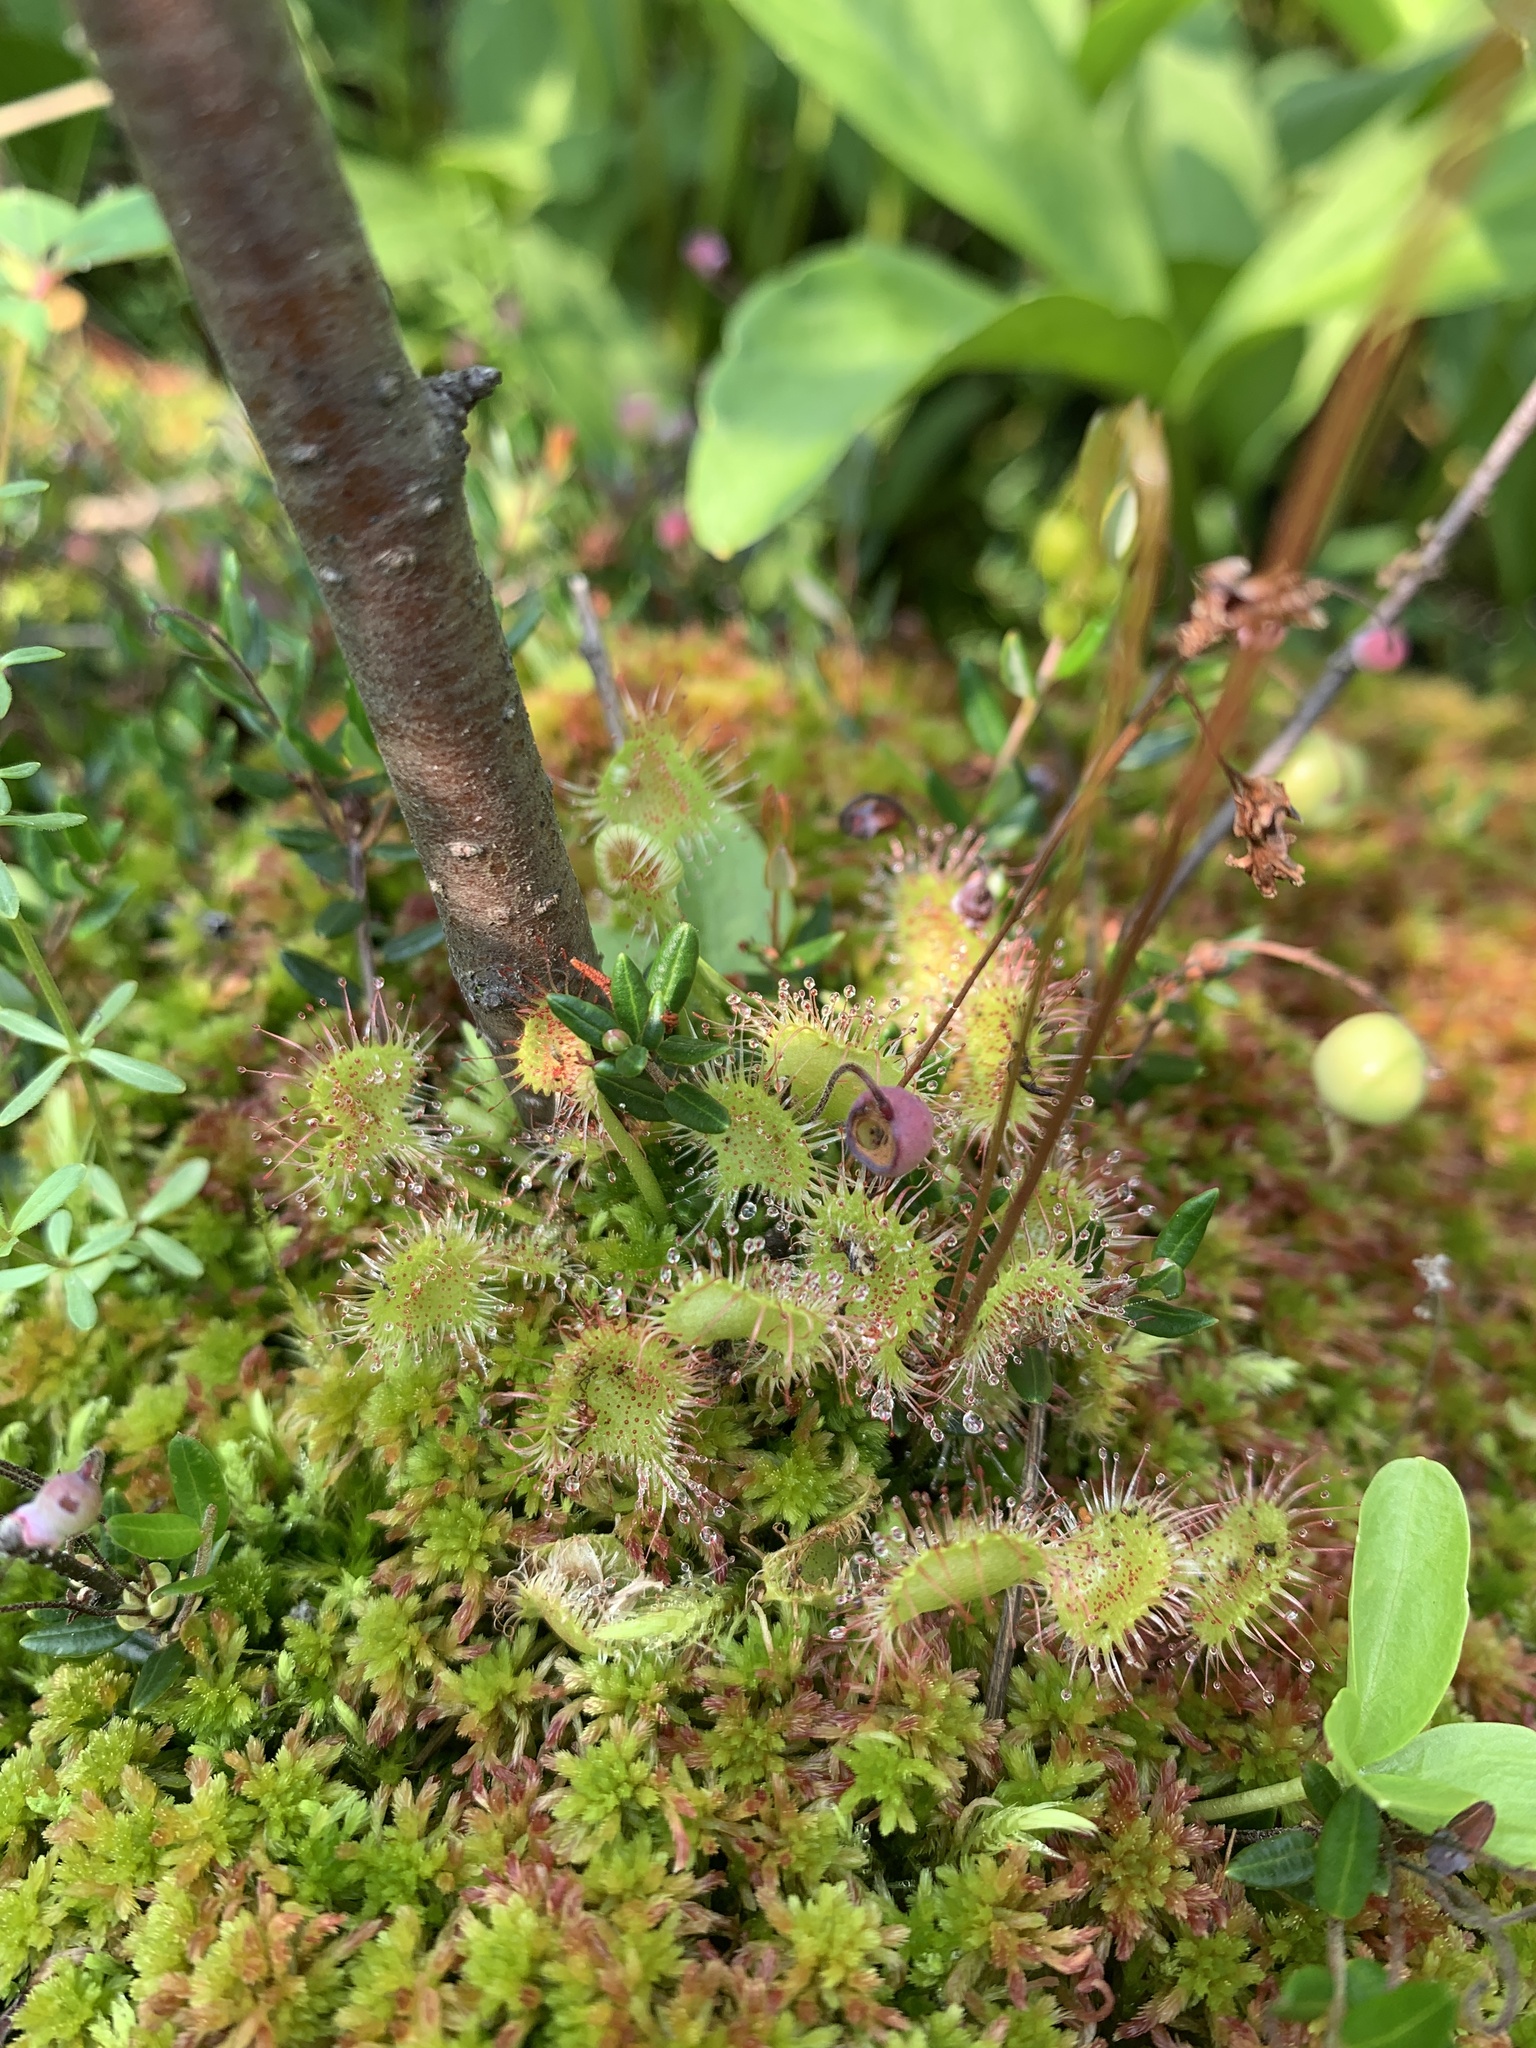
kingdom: Plantae
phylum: Tracheophyta
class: Magnoliopsida
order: Caryophyllales
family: Droseraceae
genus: Drosera
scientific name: Drosera rotundifolia
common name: Round-leaved sundew
